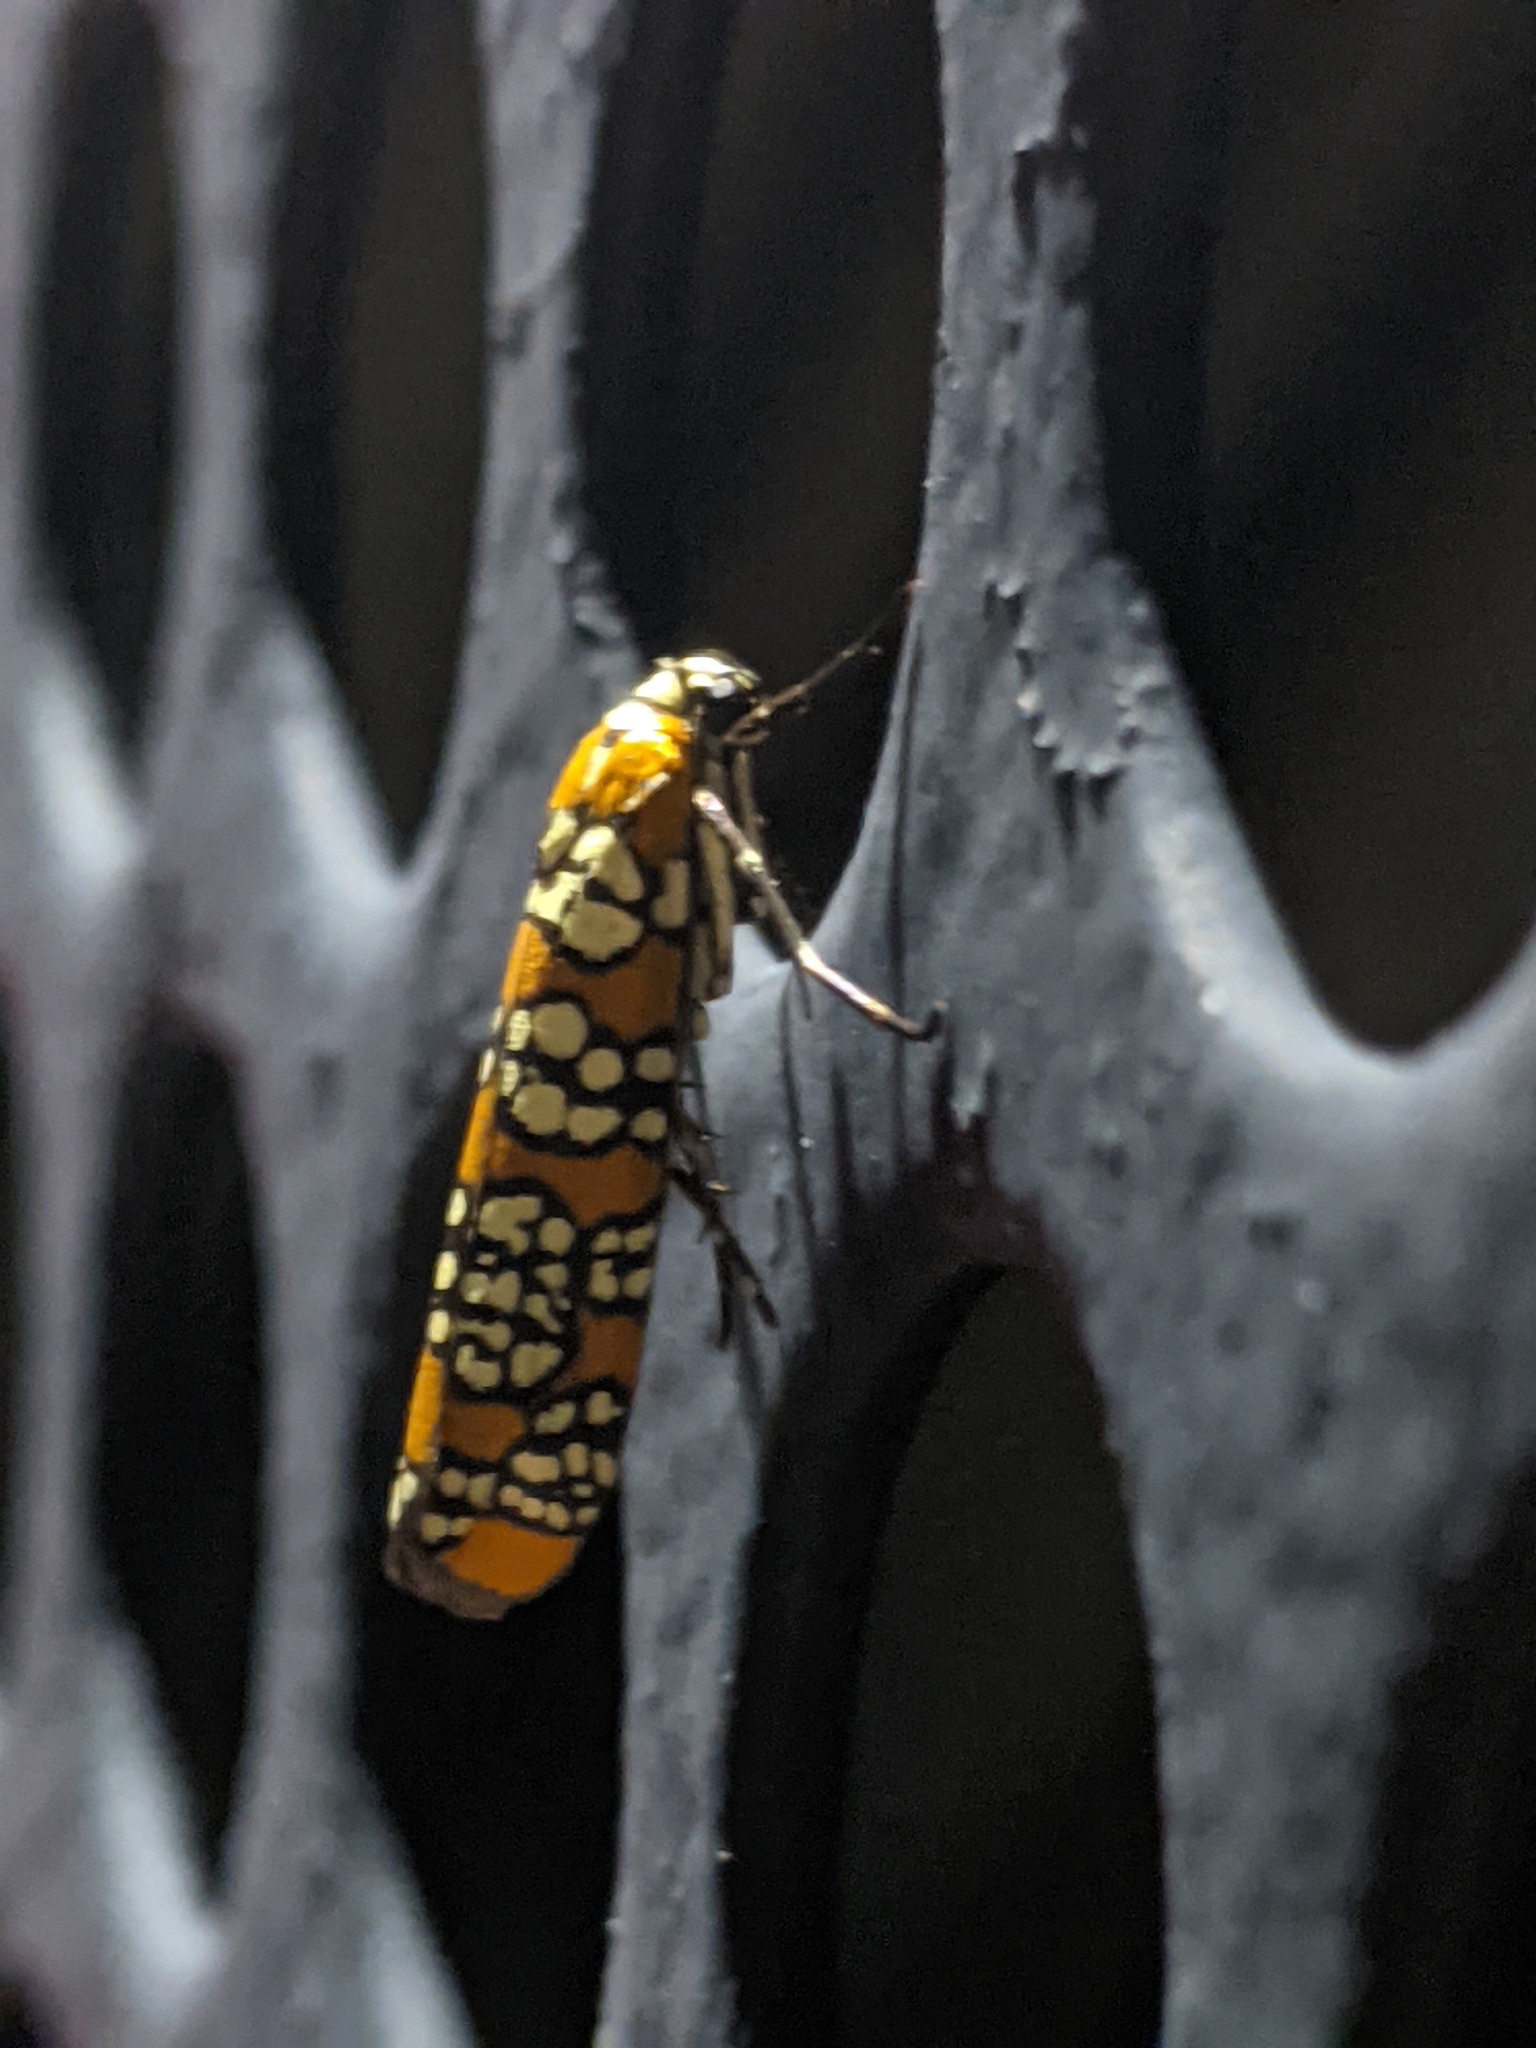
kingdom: Animalia
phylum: Arthropoda
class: Insecta
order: Lepidoptera
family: Attevidae
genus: Atteva
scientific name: Atteva punctella
